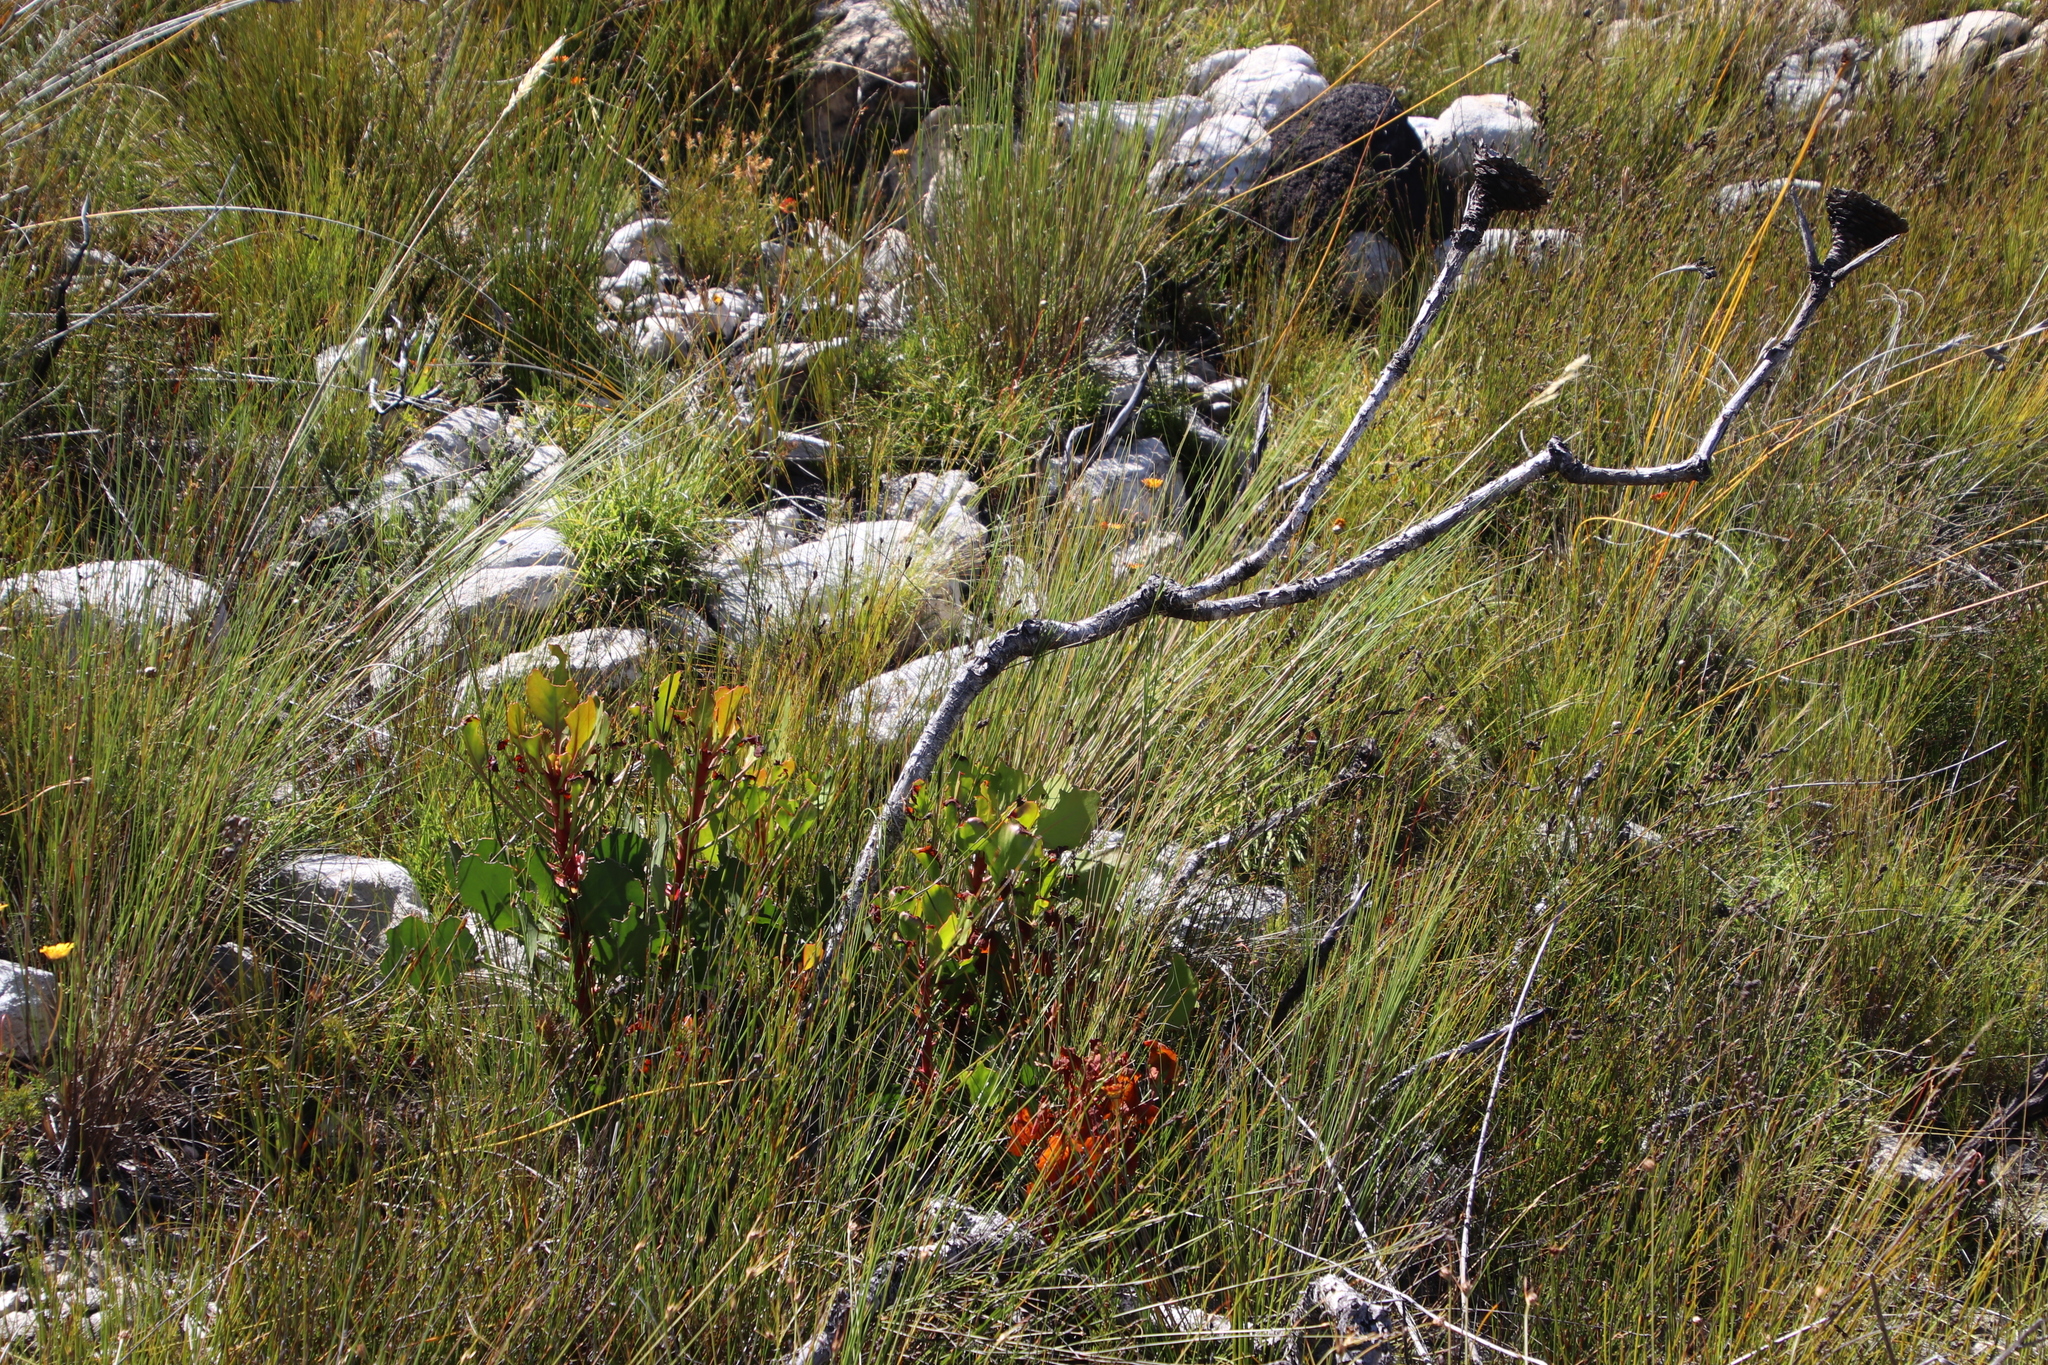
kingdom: Plantae
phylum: Tracheophyta
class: Magnoliopsida
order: Proteales
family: Proteaceae
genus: Protea
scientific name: Protea cynaroides
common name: King protea
